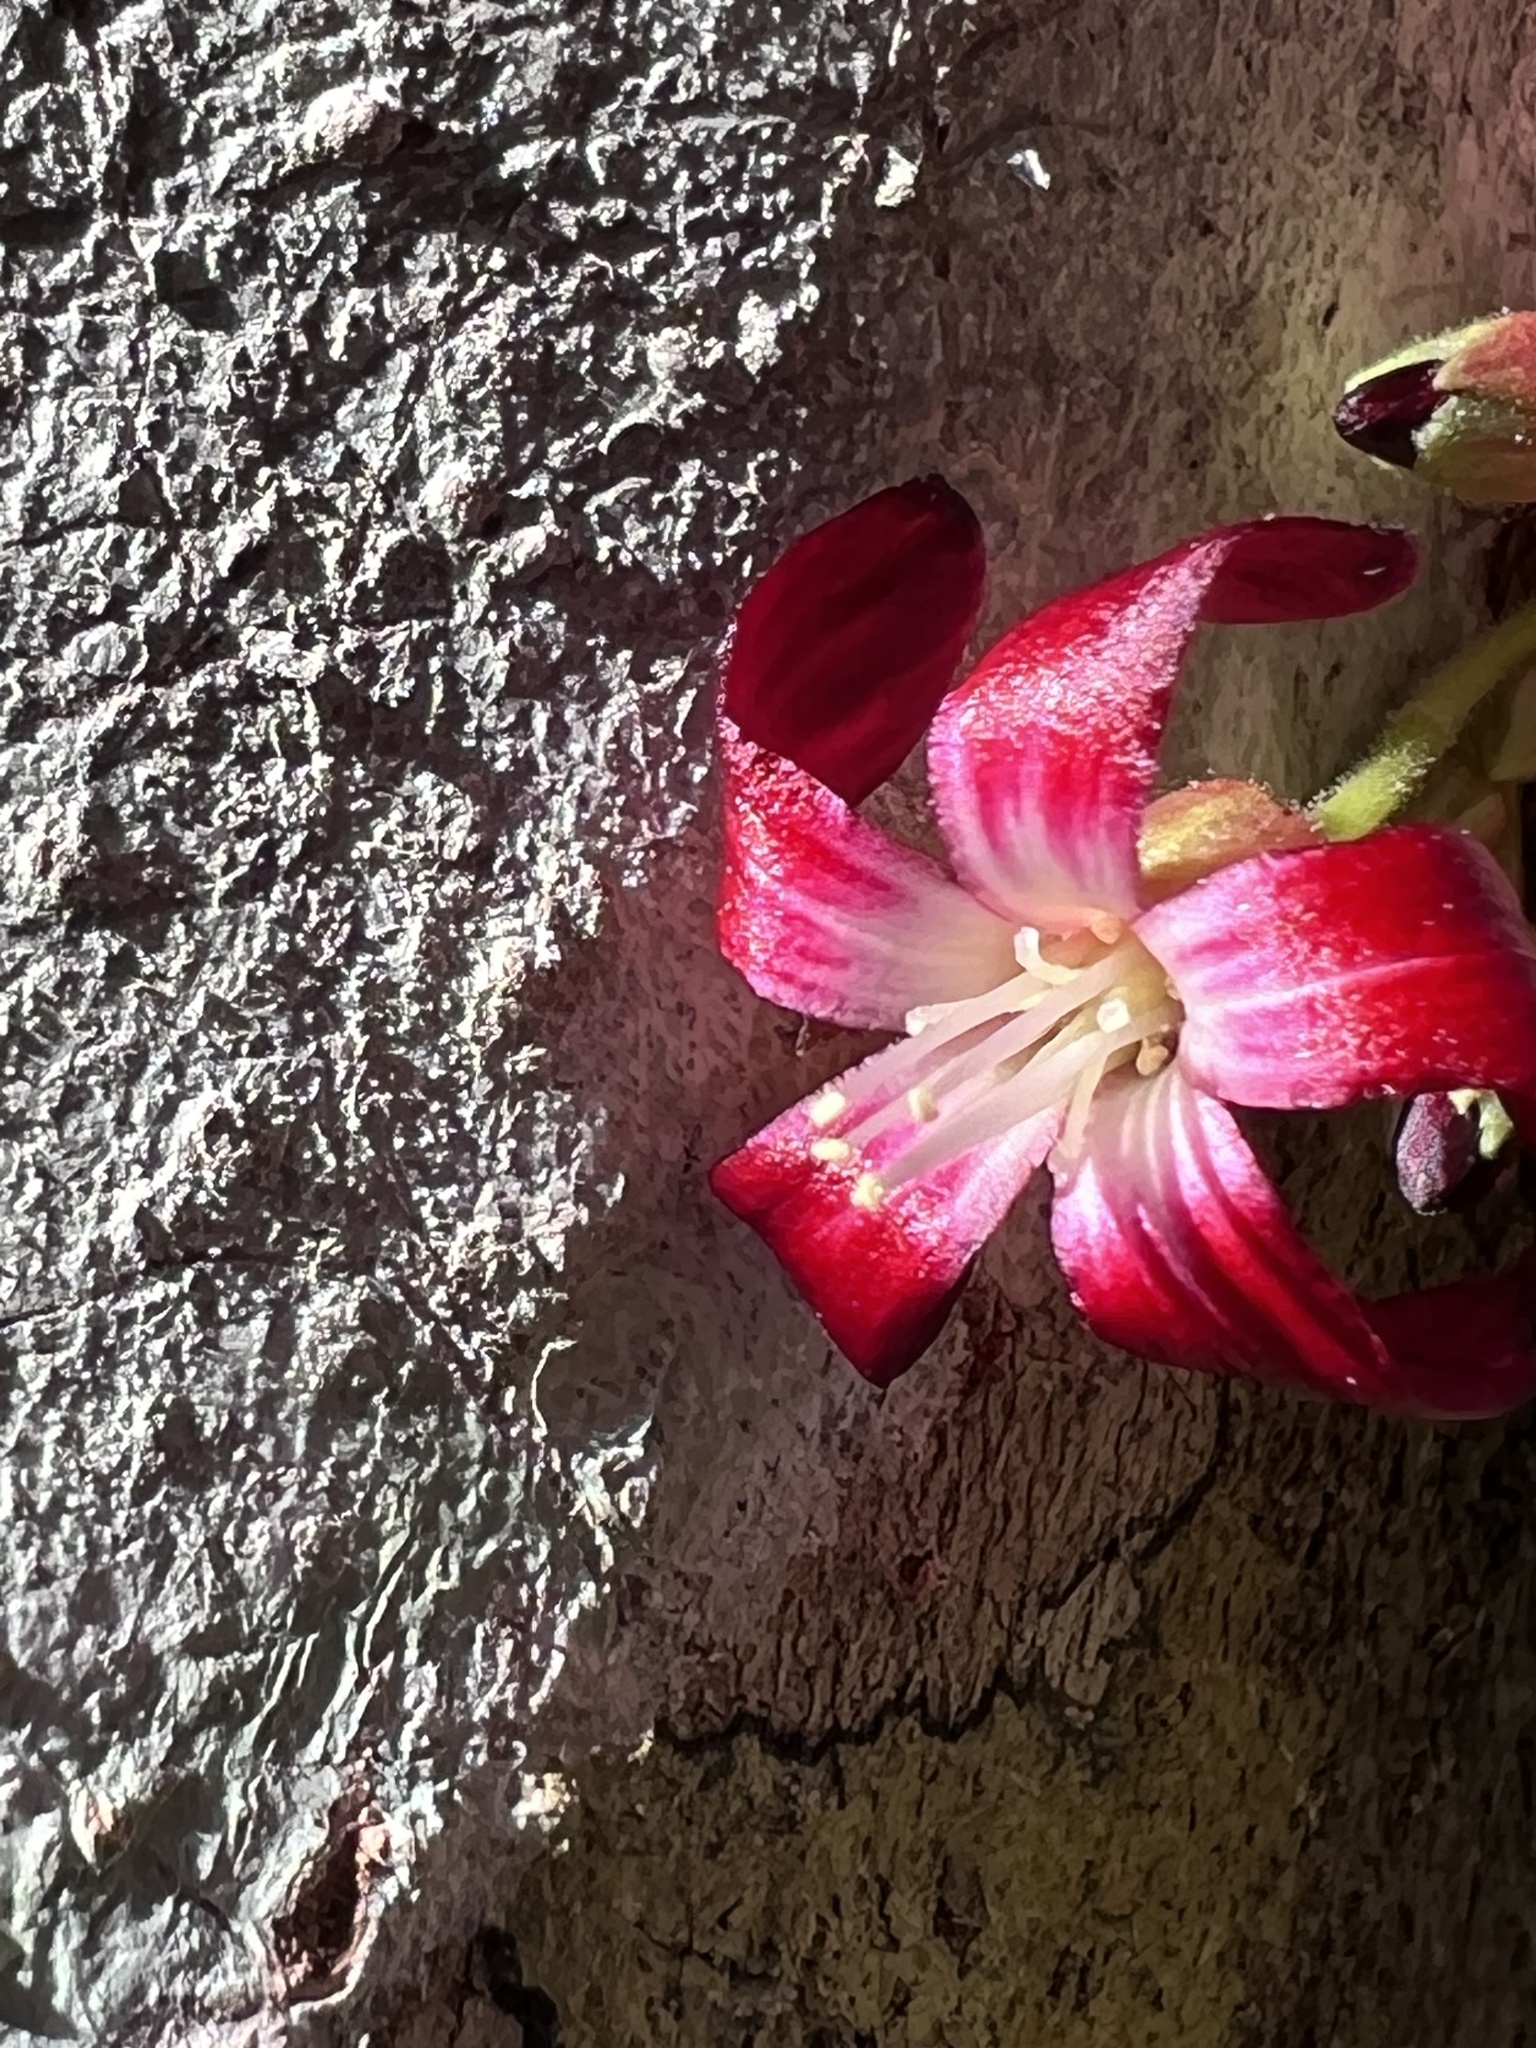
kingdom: Plantae
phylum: Tracheophyta
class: Magnoliopsida
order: Oxalidales
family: Oxalidaceae
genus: Averrhoa
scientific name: Averrhoa bilimbi
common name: Bilimbi
